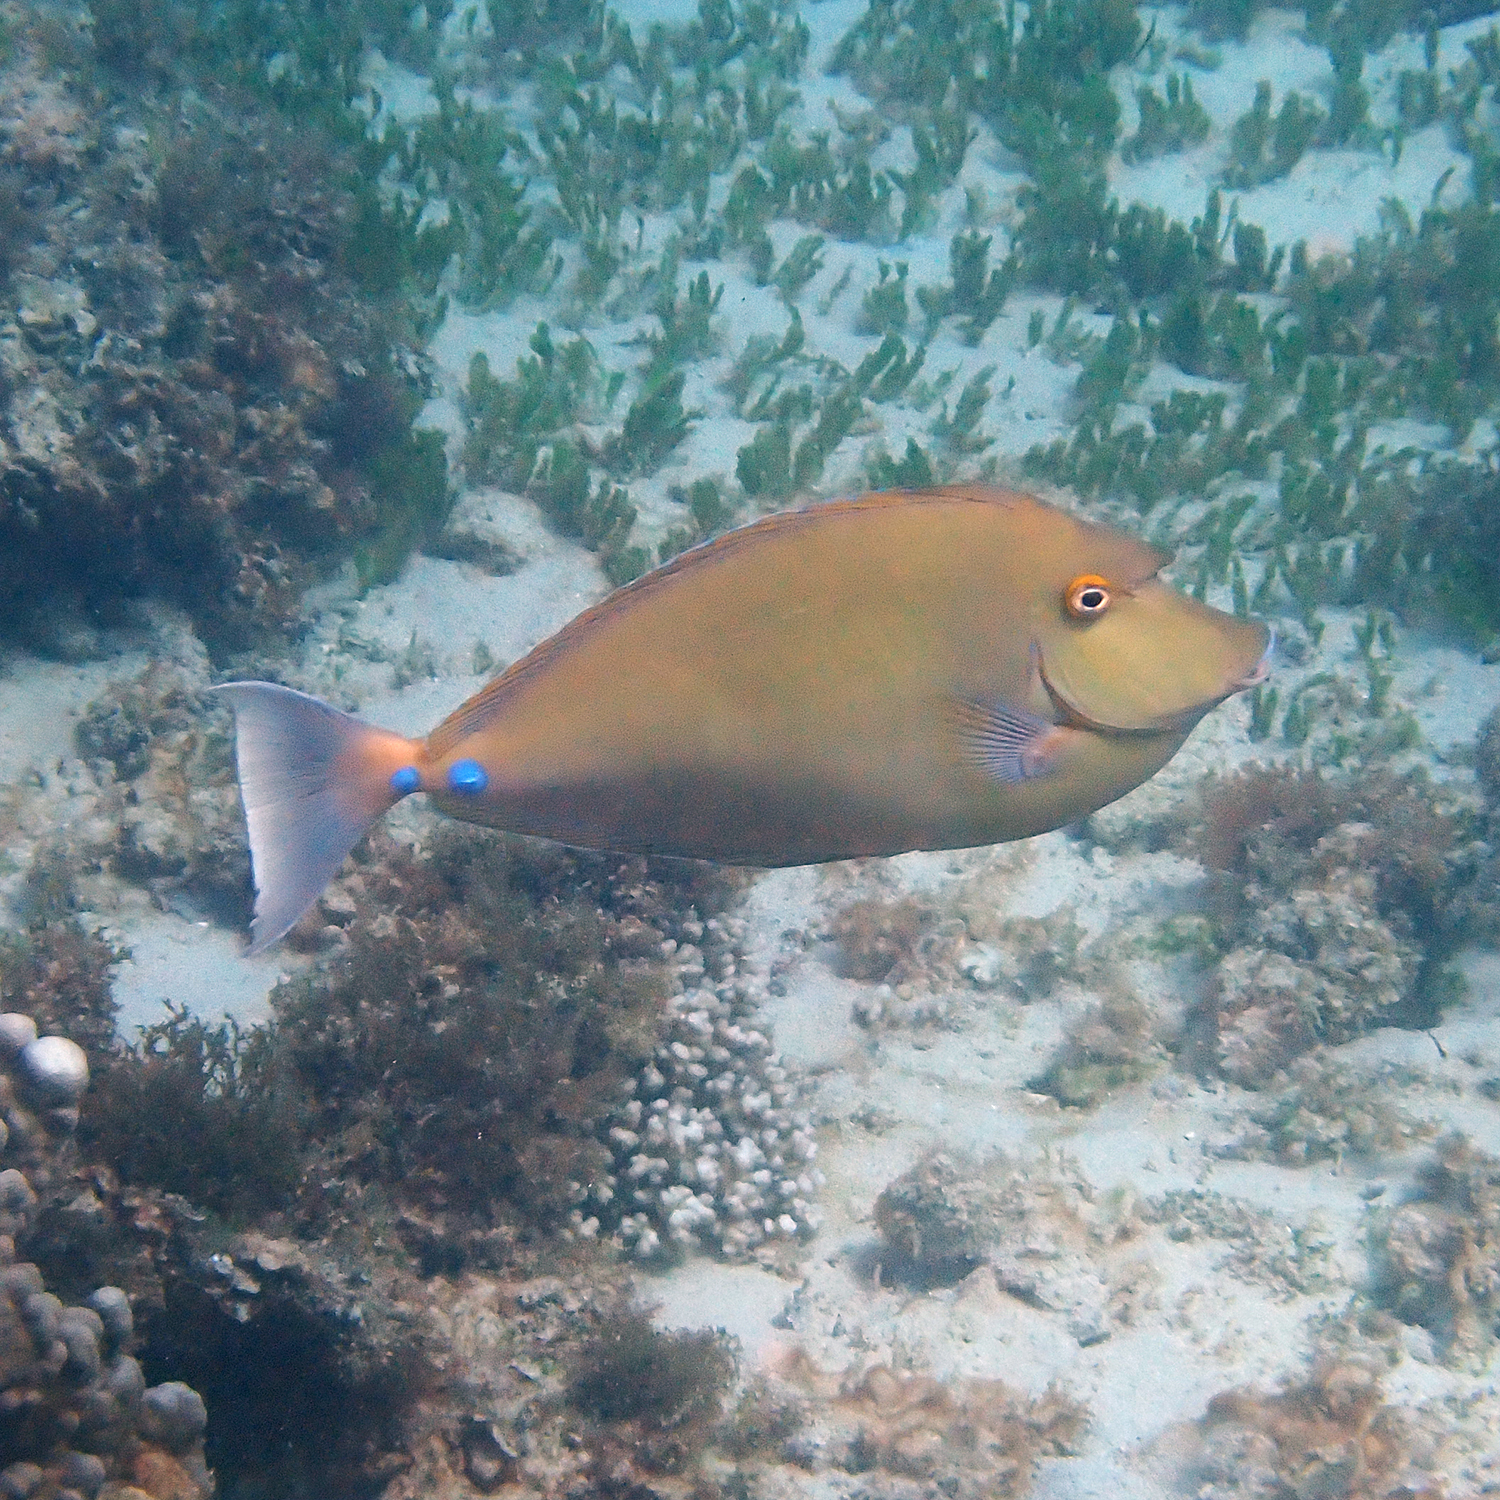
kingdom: Animalia
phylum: Chordata
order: Perciformes
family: Acanthuridae
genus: Naso
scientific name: Naso unicornis
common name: Bluespine unicornfish
